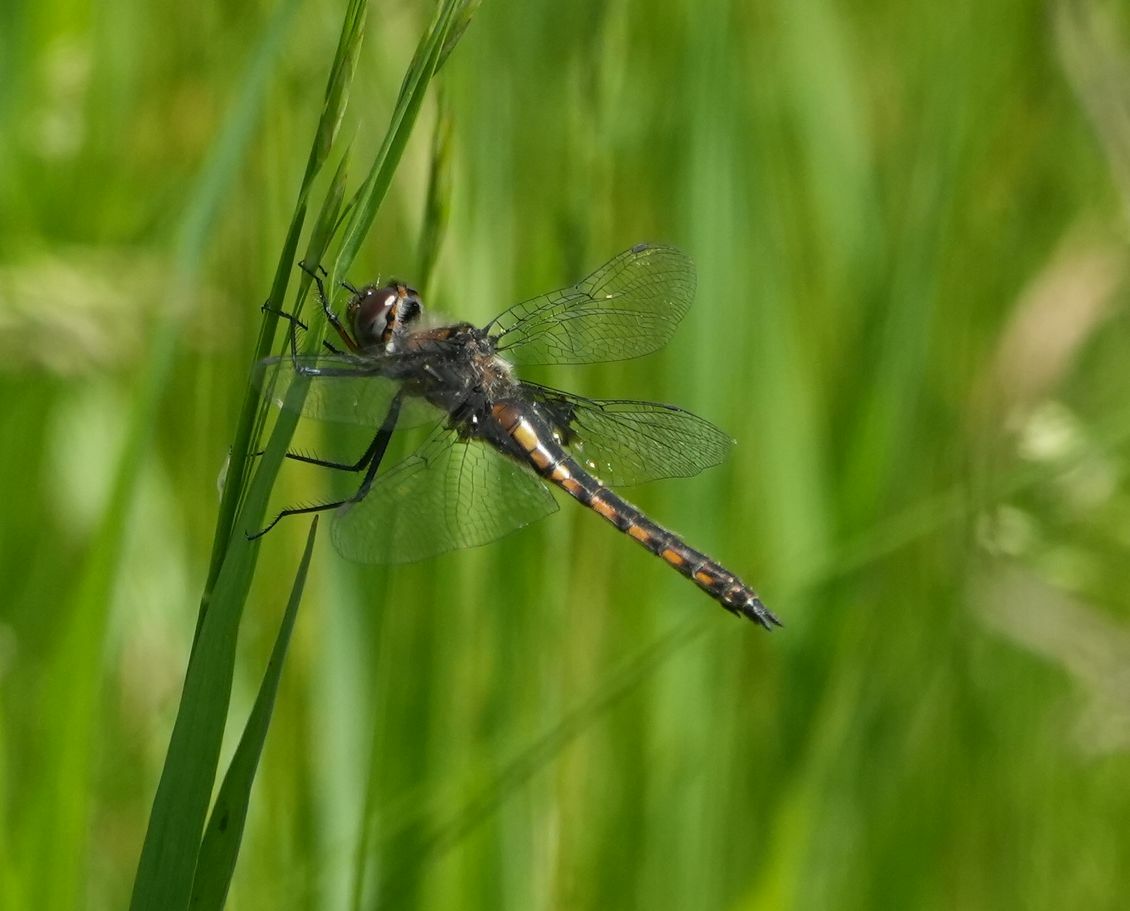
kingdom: Animalia
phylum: Arthropoda
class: Insecta
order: Odonata
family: Corduliidae
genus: Epitheca
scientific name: Epitheca cynosura
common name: Common baskettail
